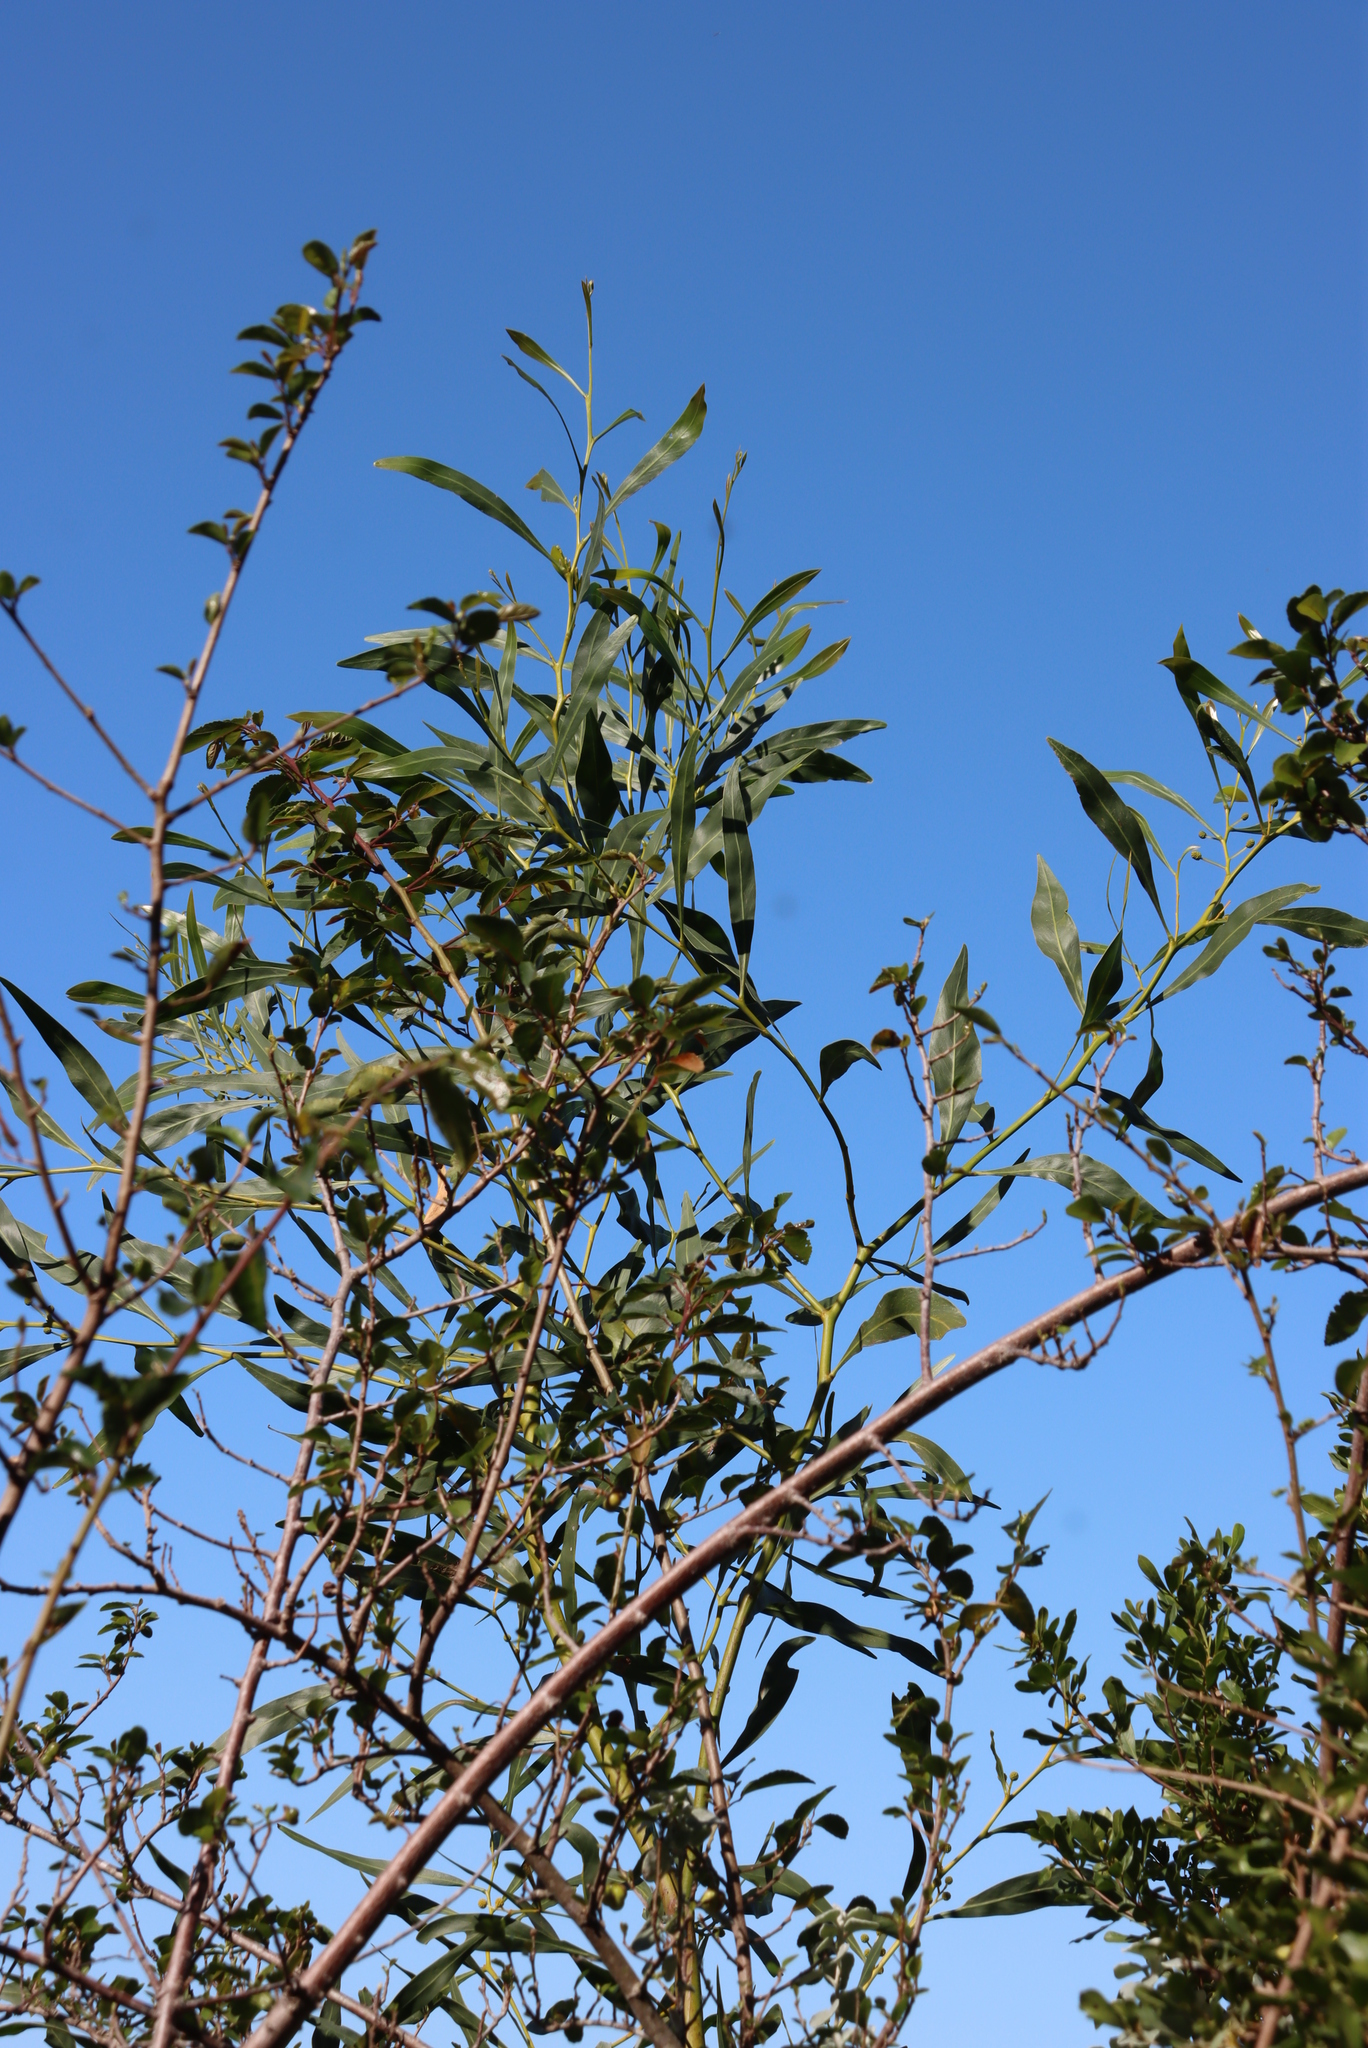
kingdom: Plantae
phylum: Tracheophyta
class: Magnoliopsida
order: Fabales
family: Fabaceae
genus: Acacia
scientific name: Acacia saligna
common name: Orange wattle
